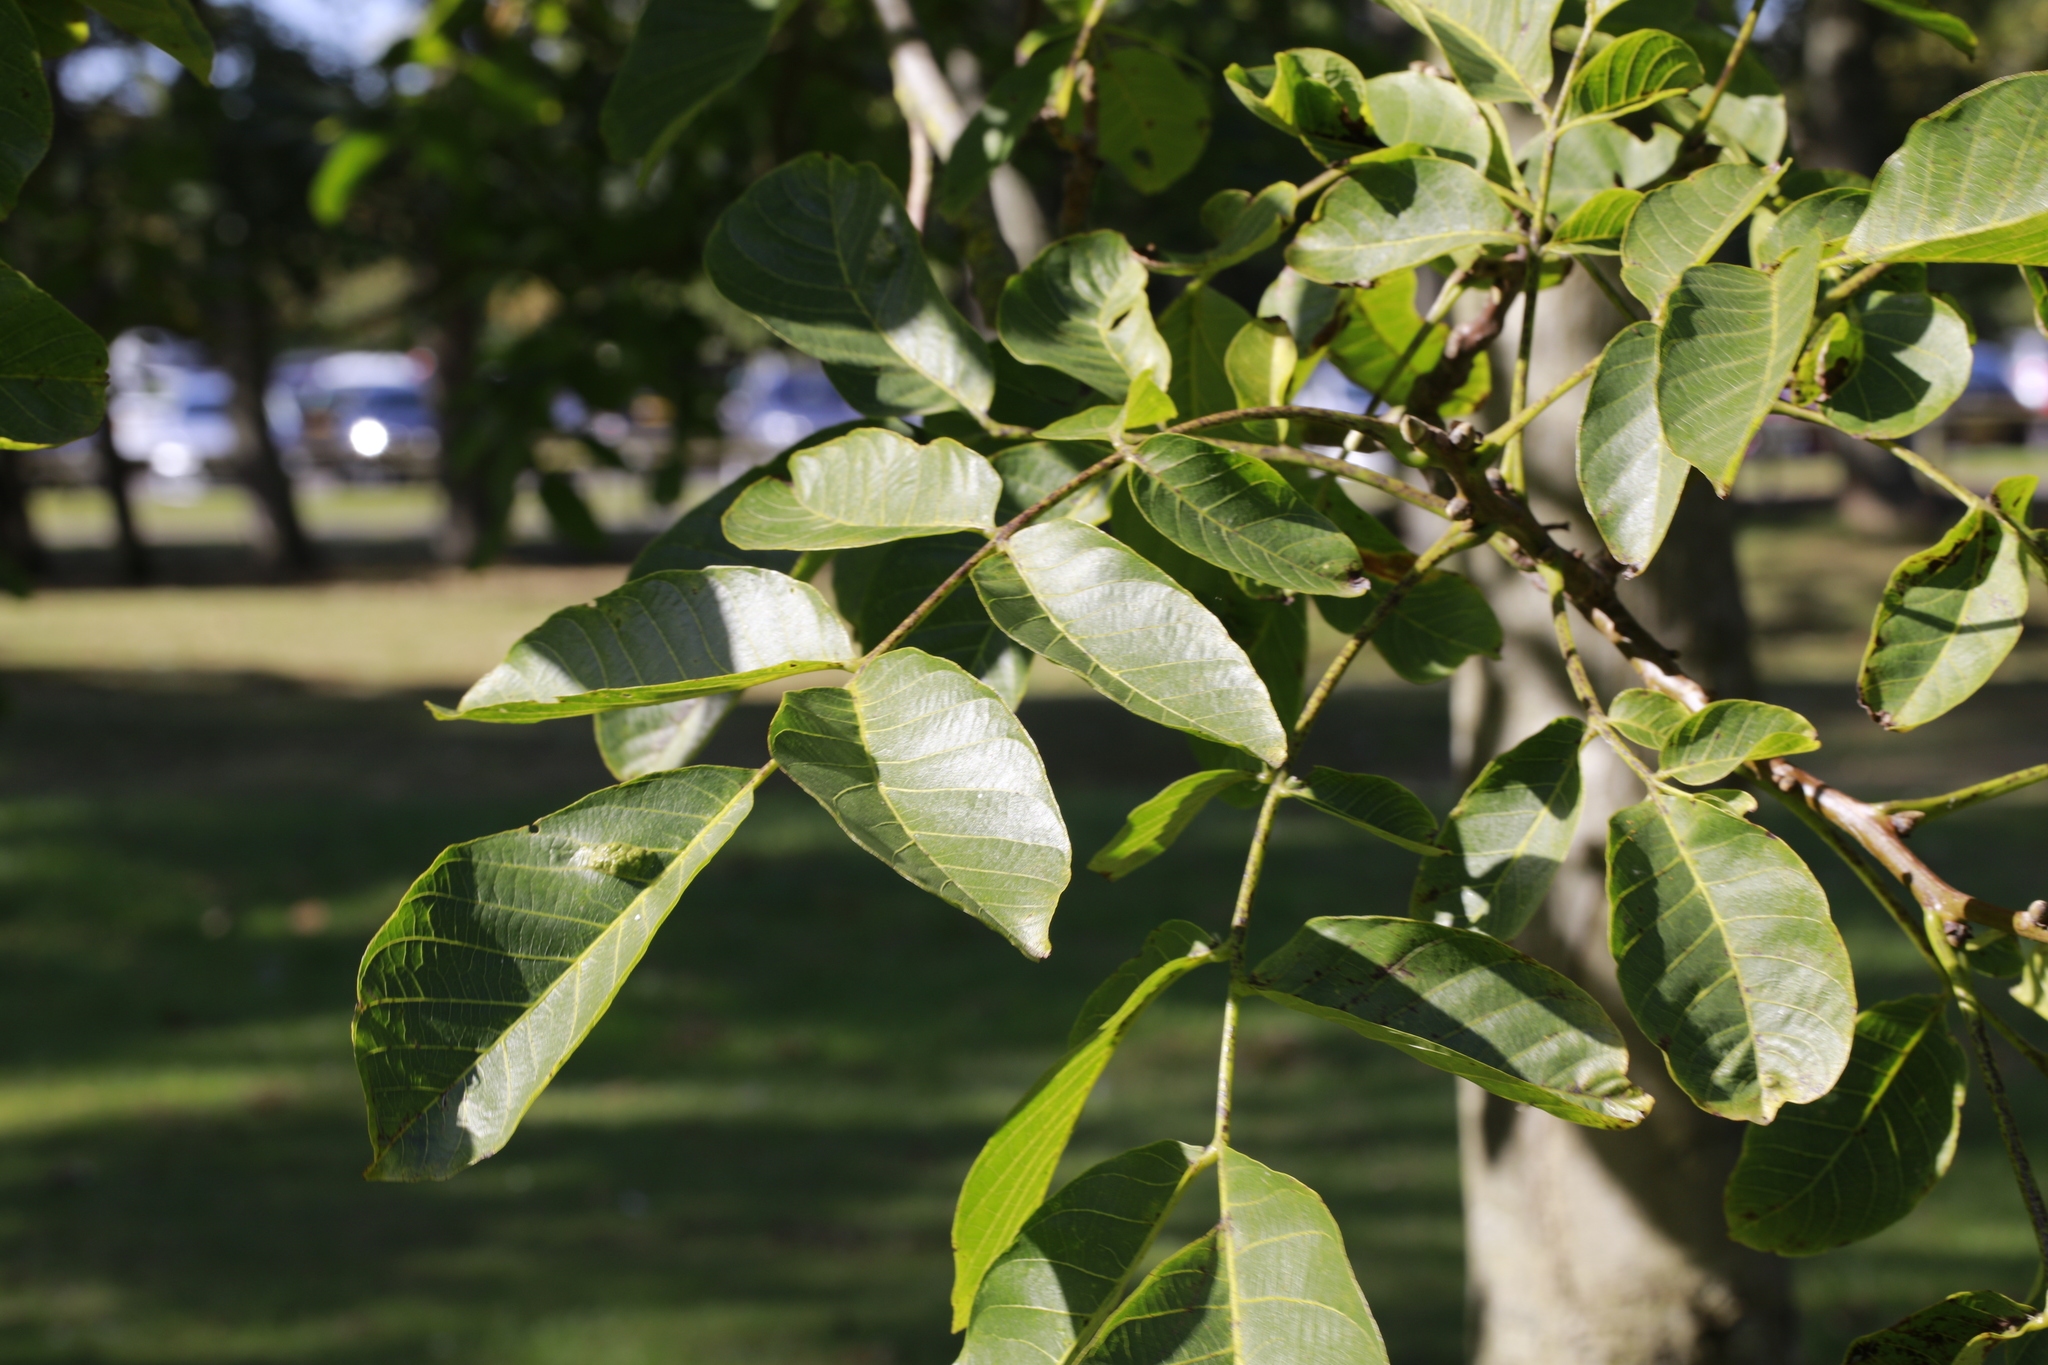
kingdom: Plantae
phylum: Tracheophyta
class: Magnoliopsida
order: Fagales
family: Juglandaceae
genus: Juglans
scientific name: Juglans regia
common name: Walnut
